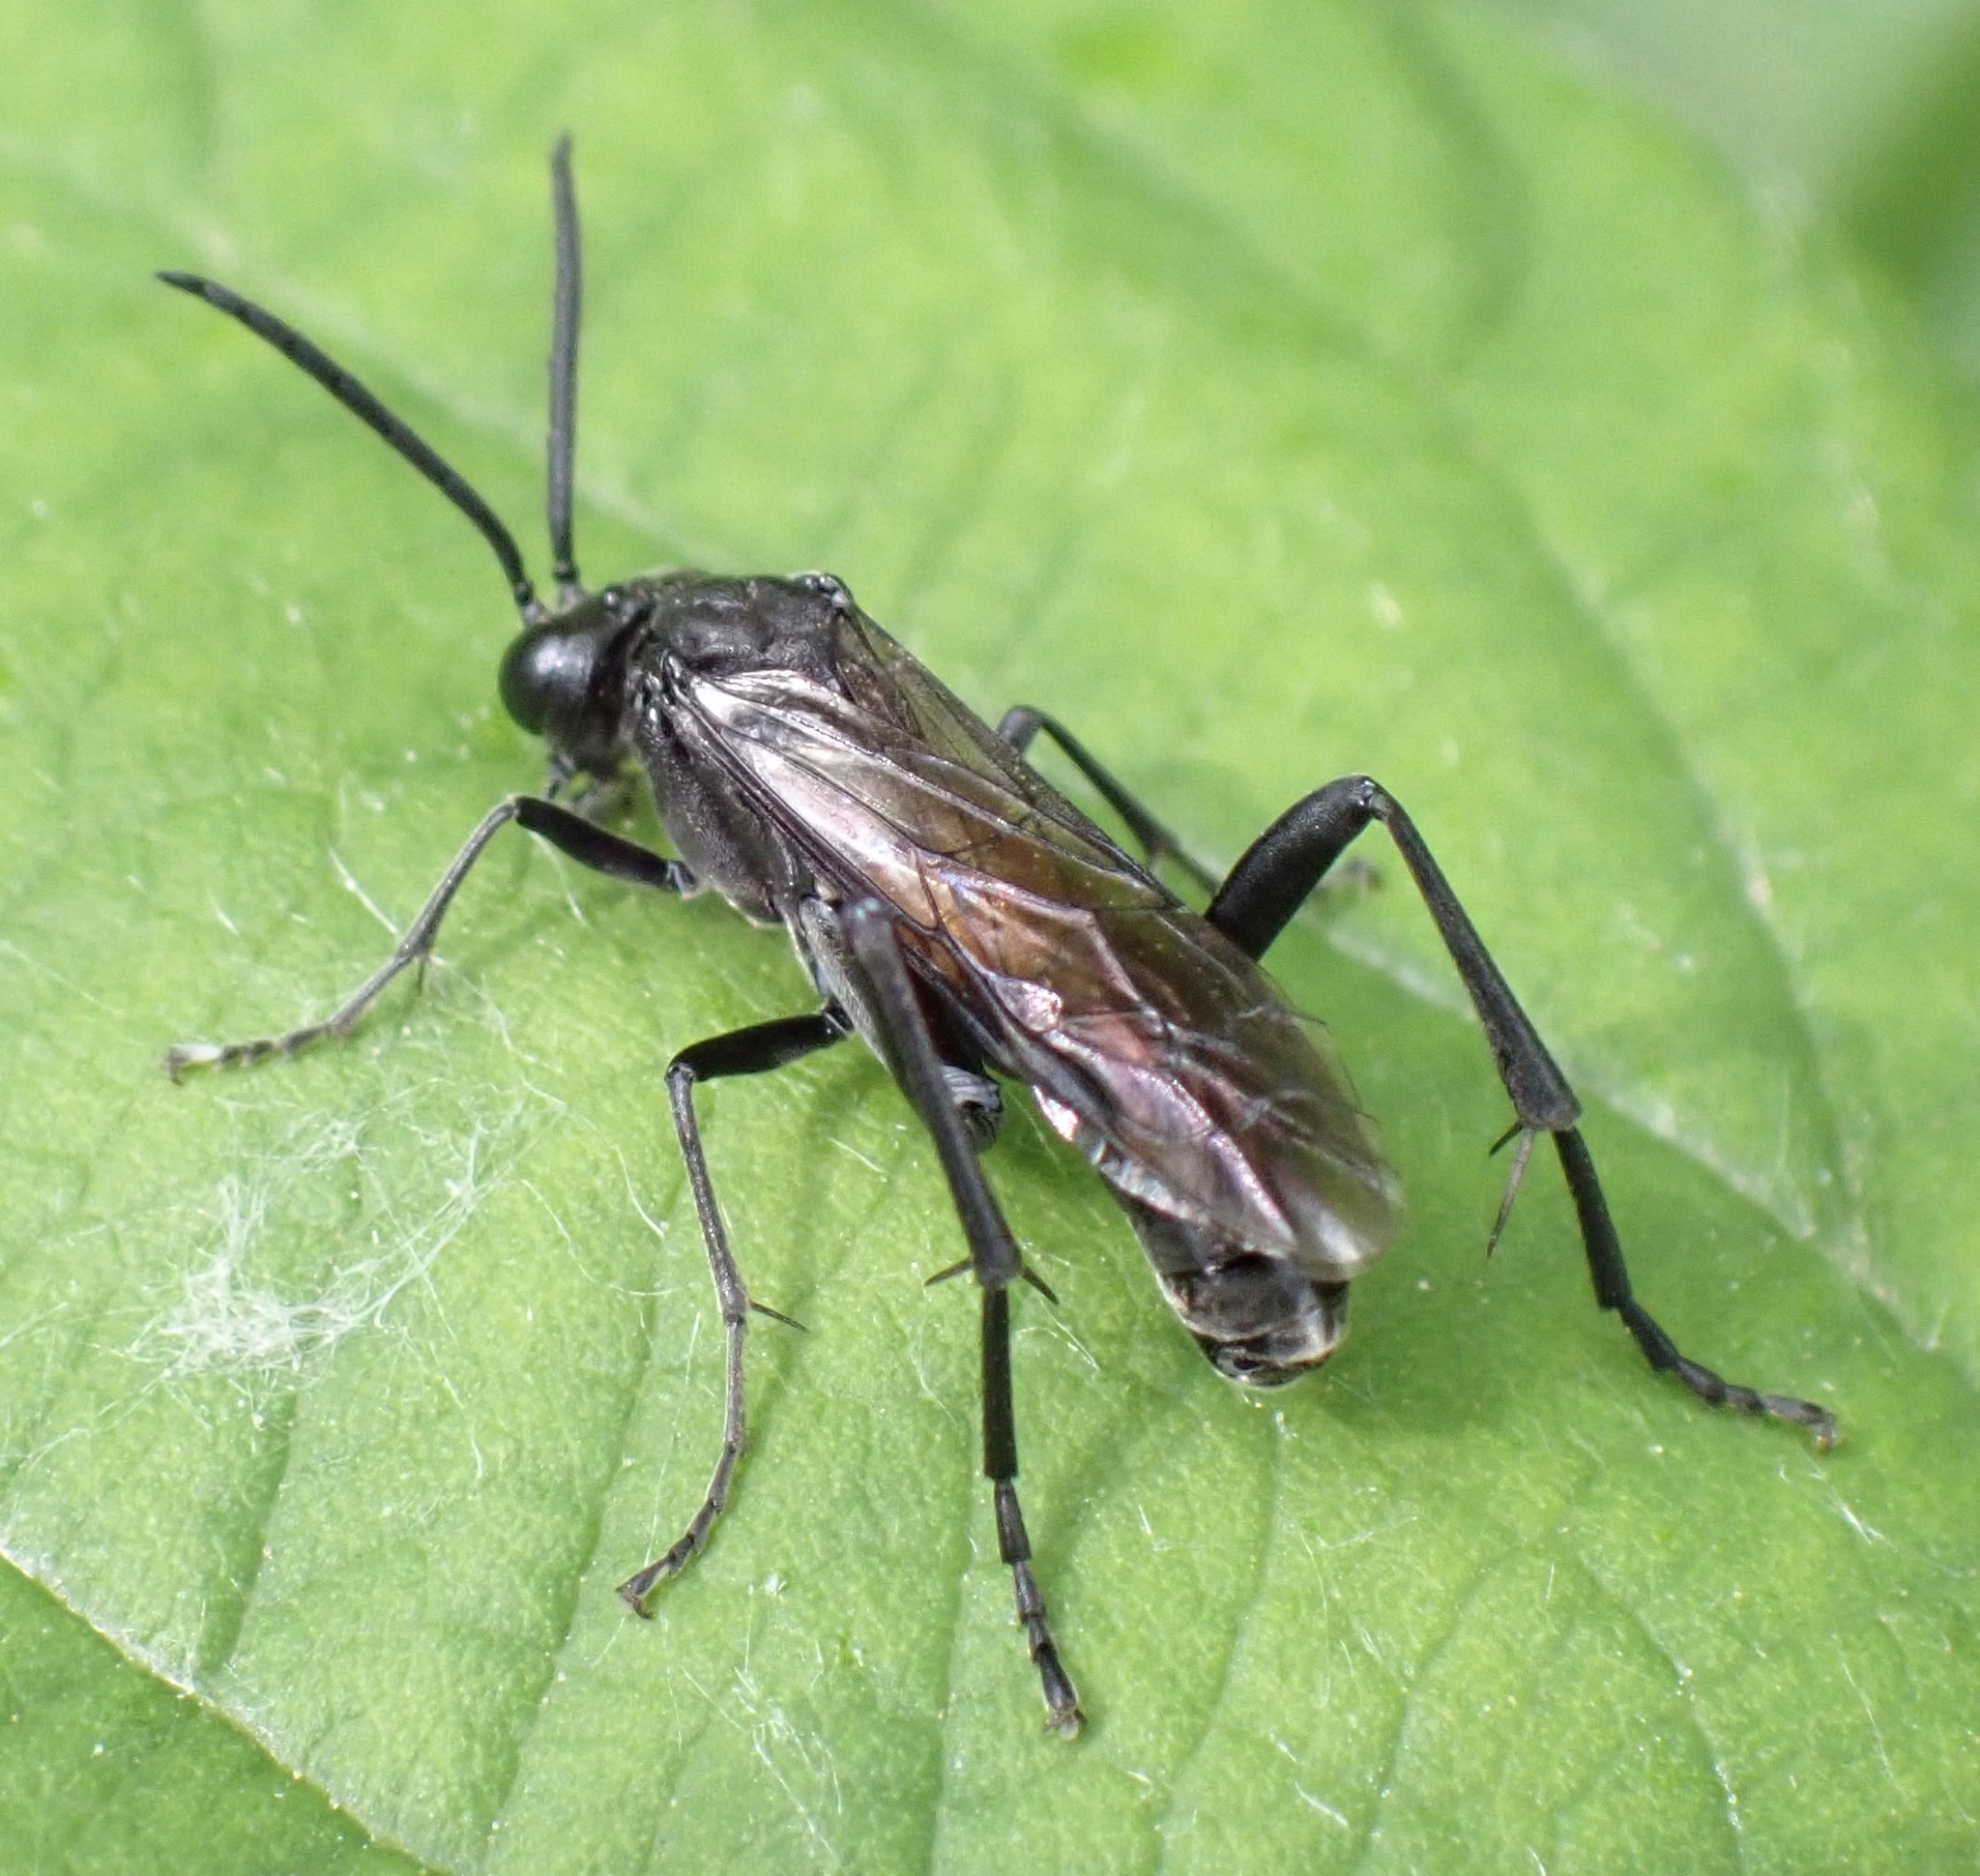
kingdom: Animalia
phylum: Arthropoda
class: Insecta
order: Hymenoptera
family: Tenthredinidae
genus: Macrophya
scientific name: Macrophya annulata
